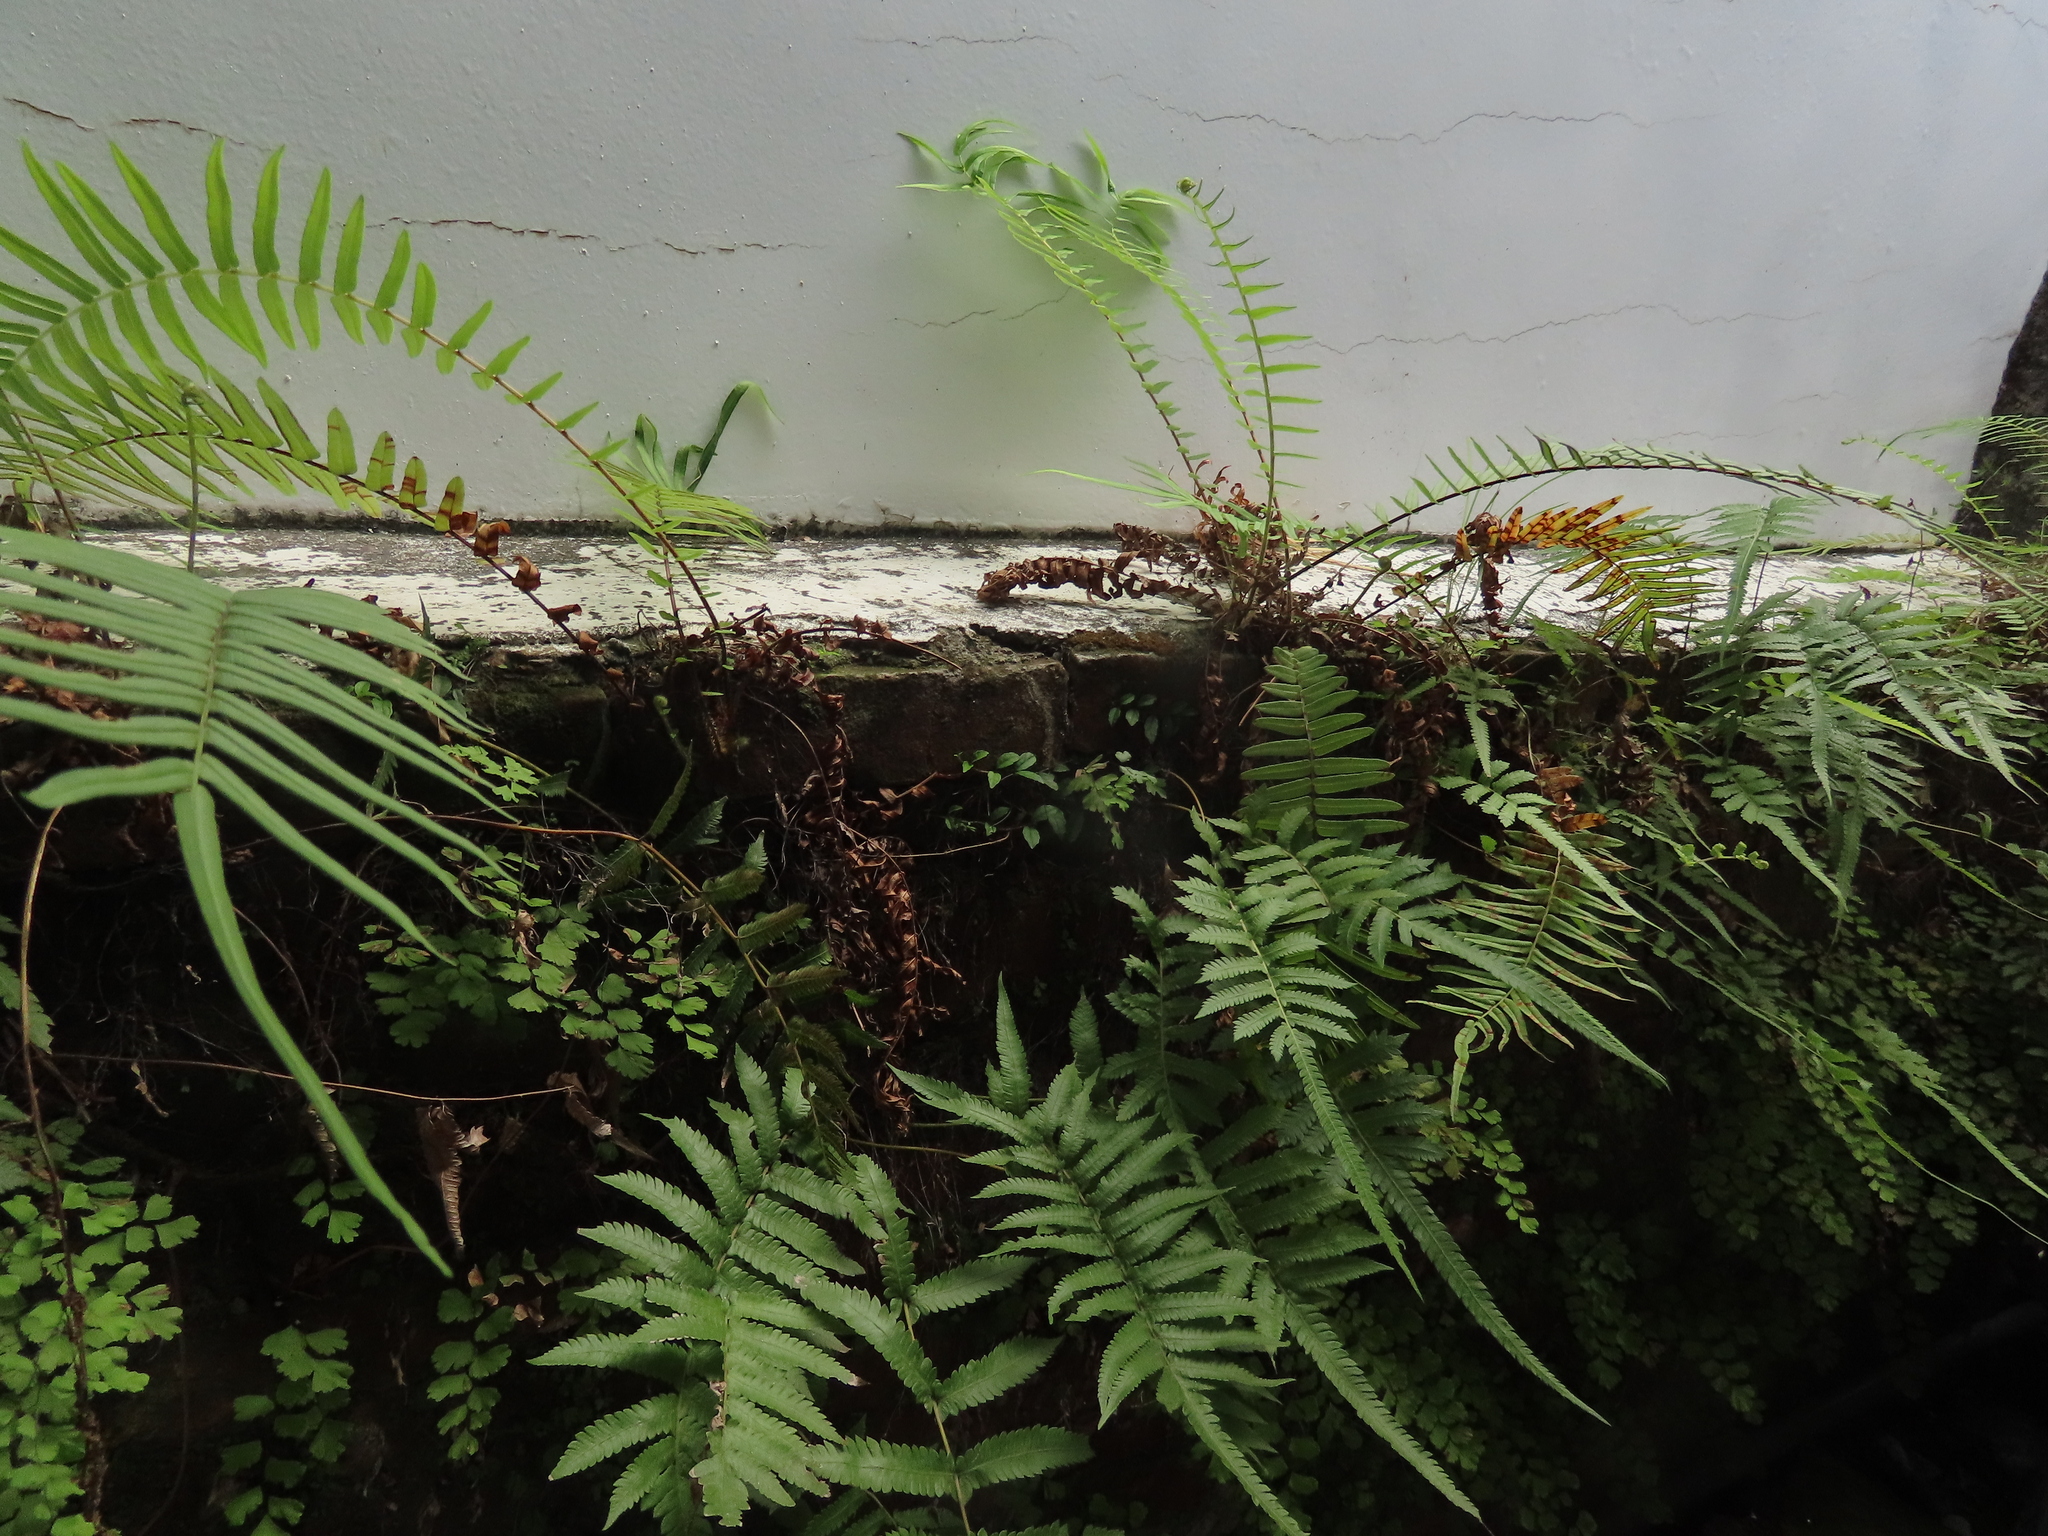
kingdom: Plantae
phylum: Tracheophyta
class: Polypodiopsida
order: Polypodiales
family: Thelypteridaceae
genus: Christella
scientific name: Christella acuminata
